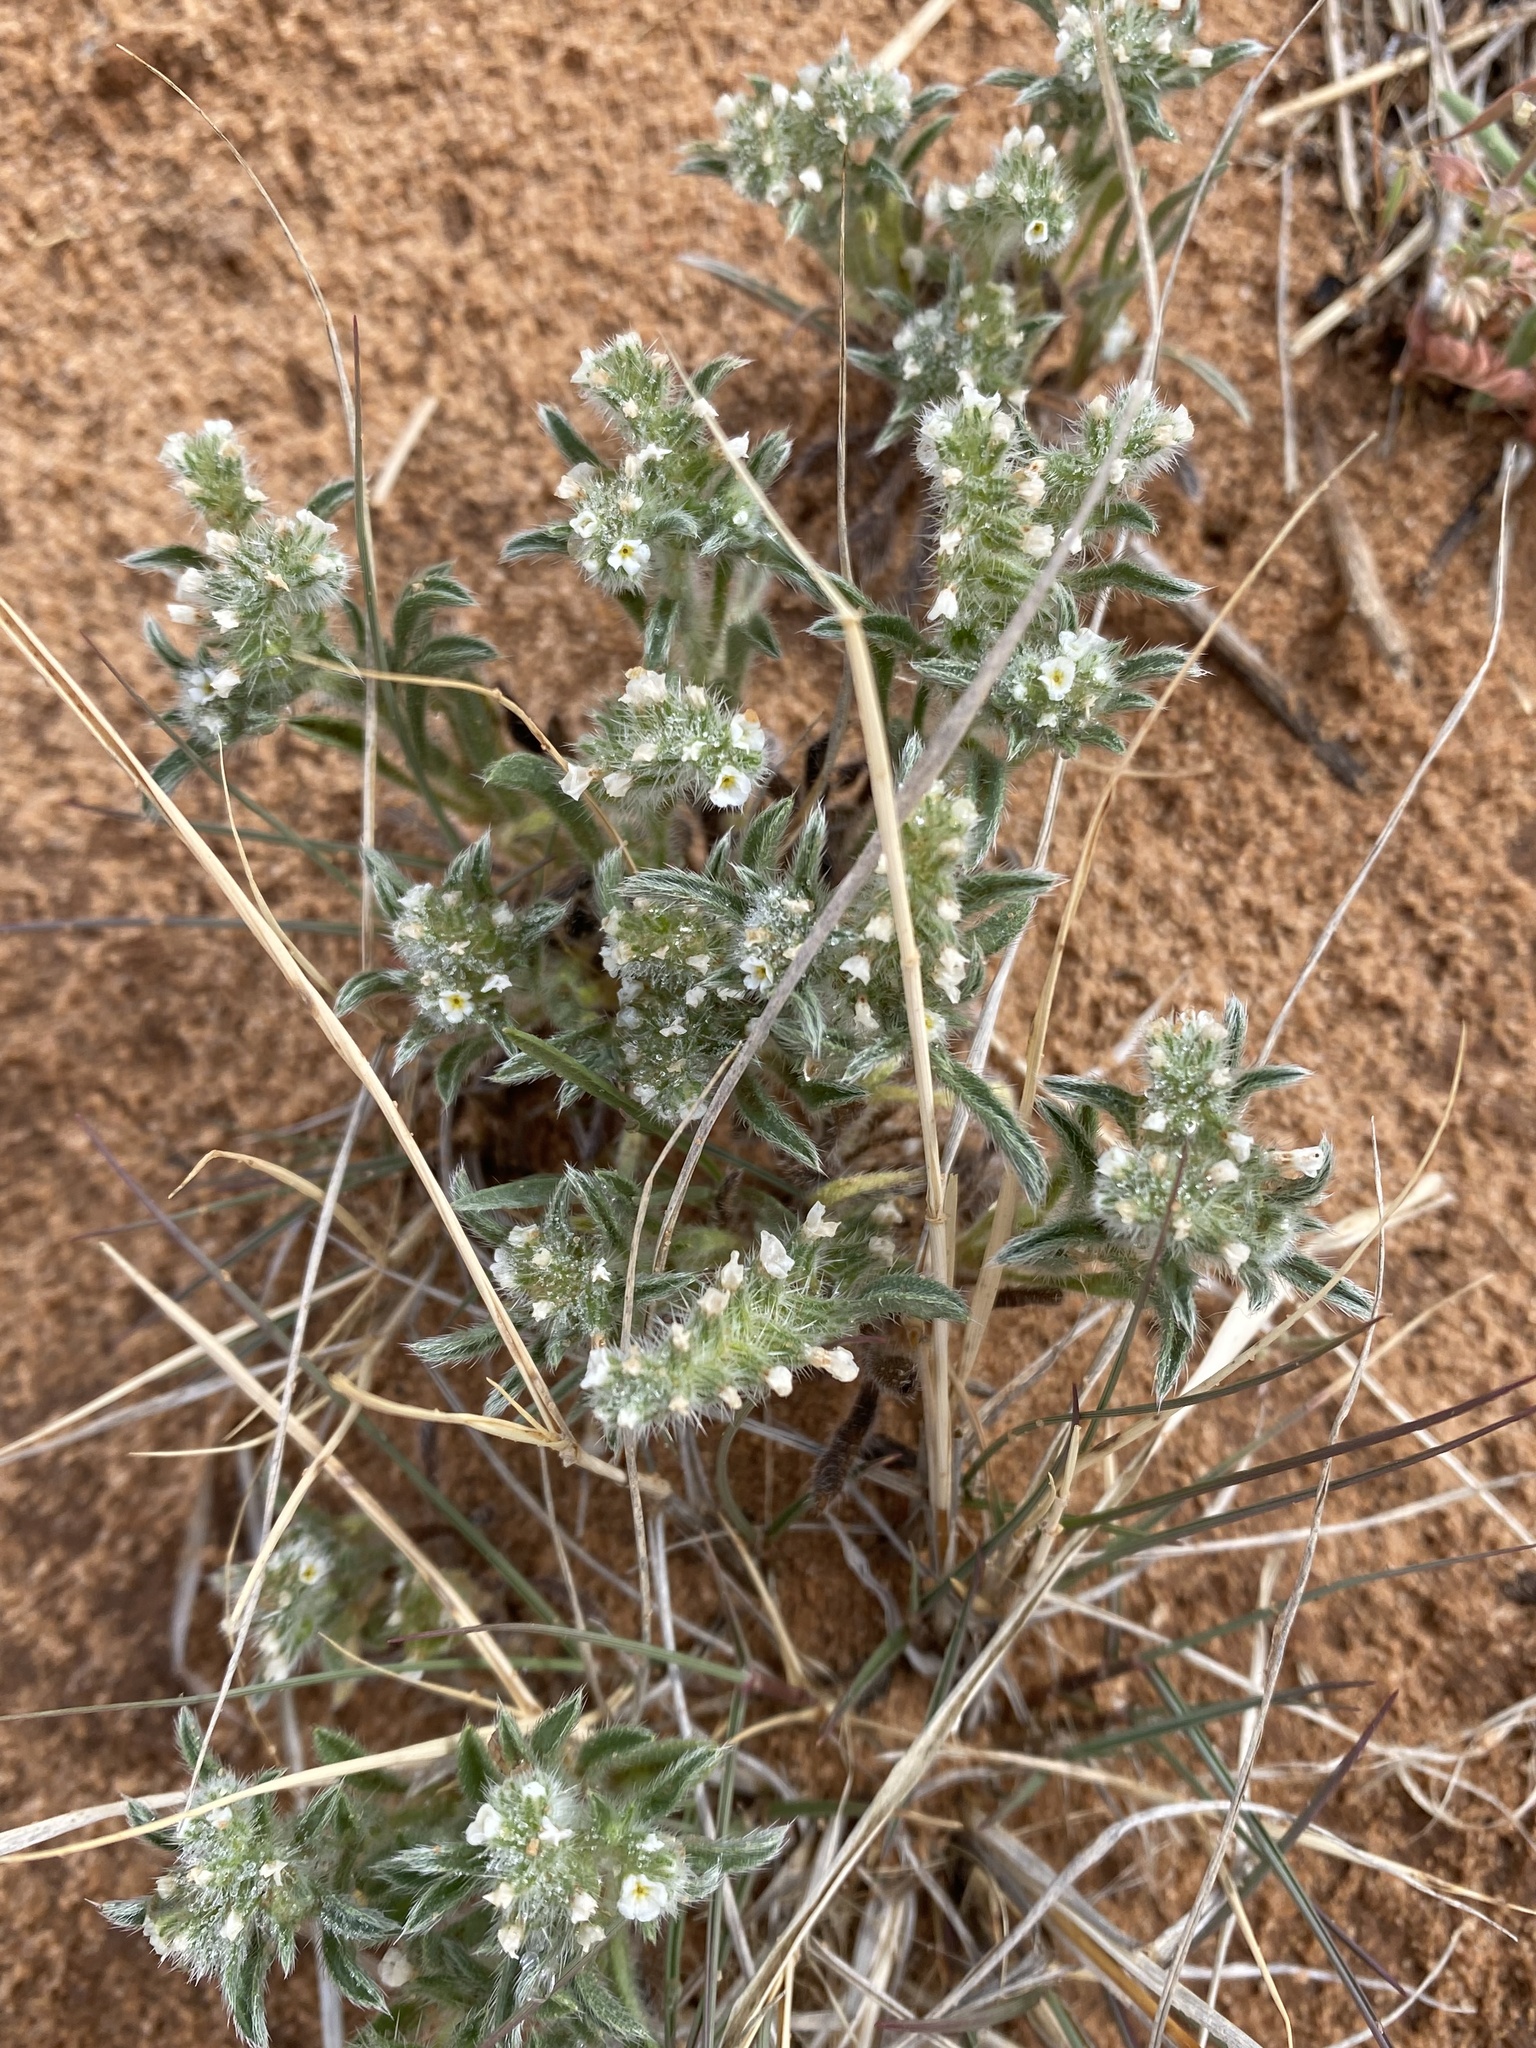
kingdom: Plantae
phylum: Tracheophyta
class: Magnoliopsida
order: Boraginales
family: Boraginaceae
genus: Cryptantha
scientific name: Cryptantha crassisepala
